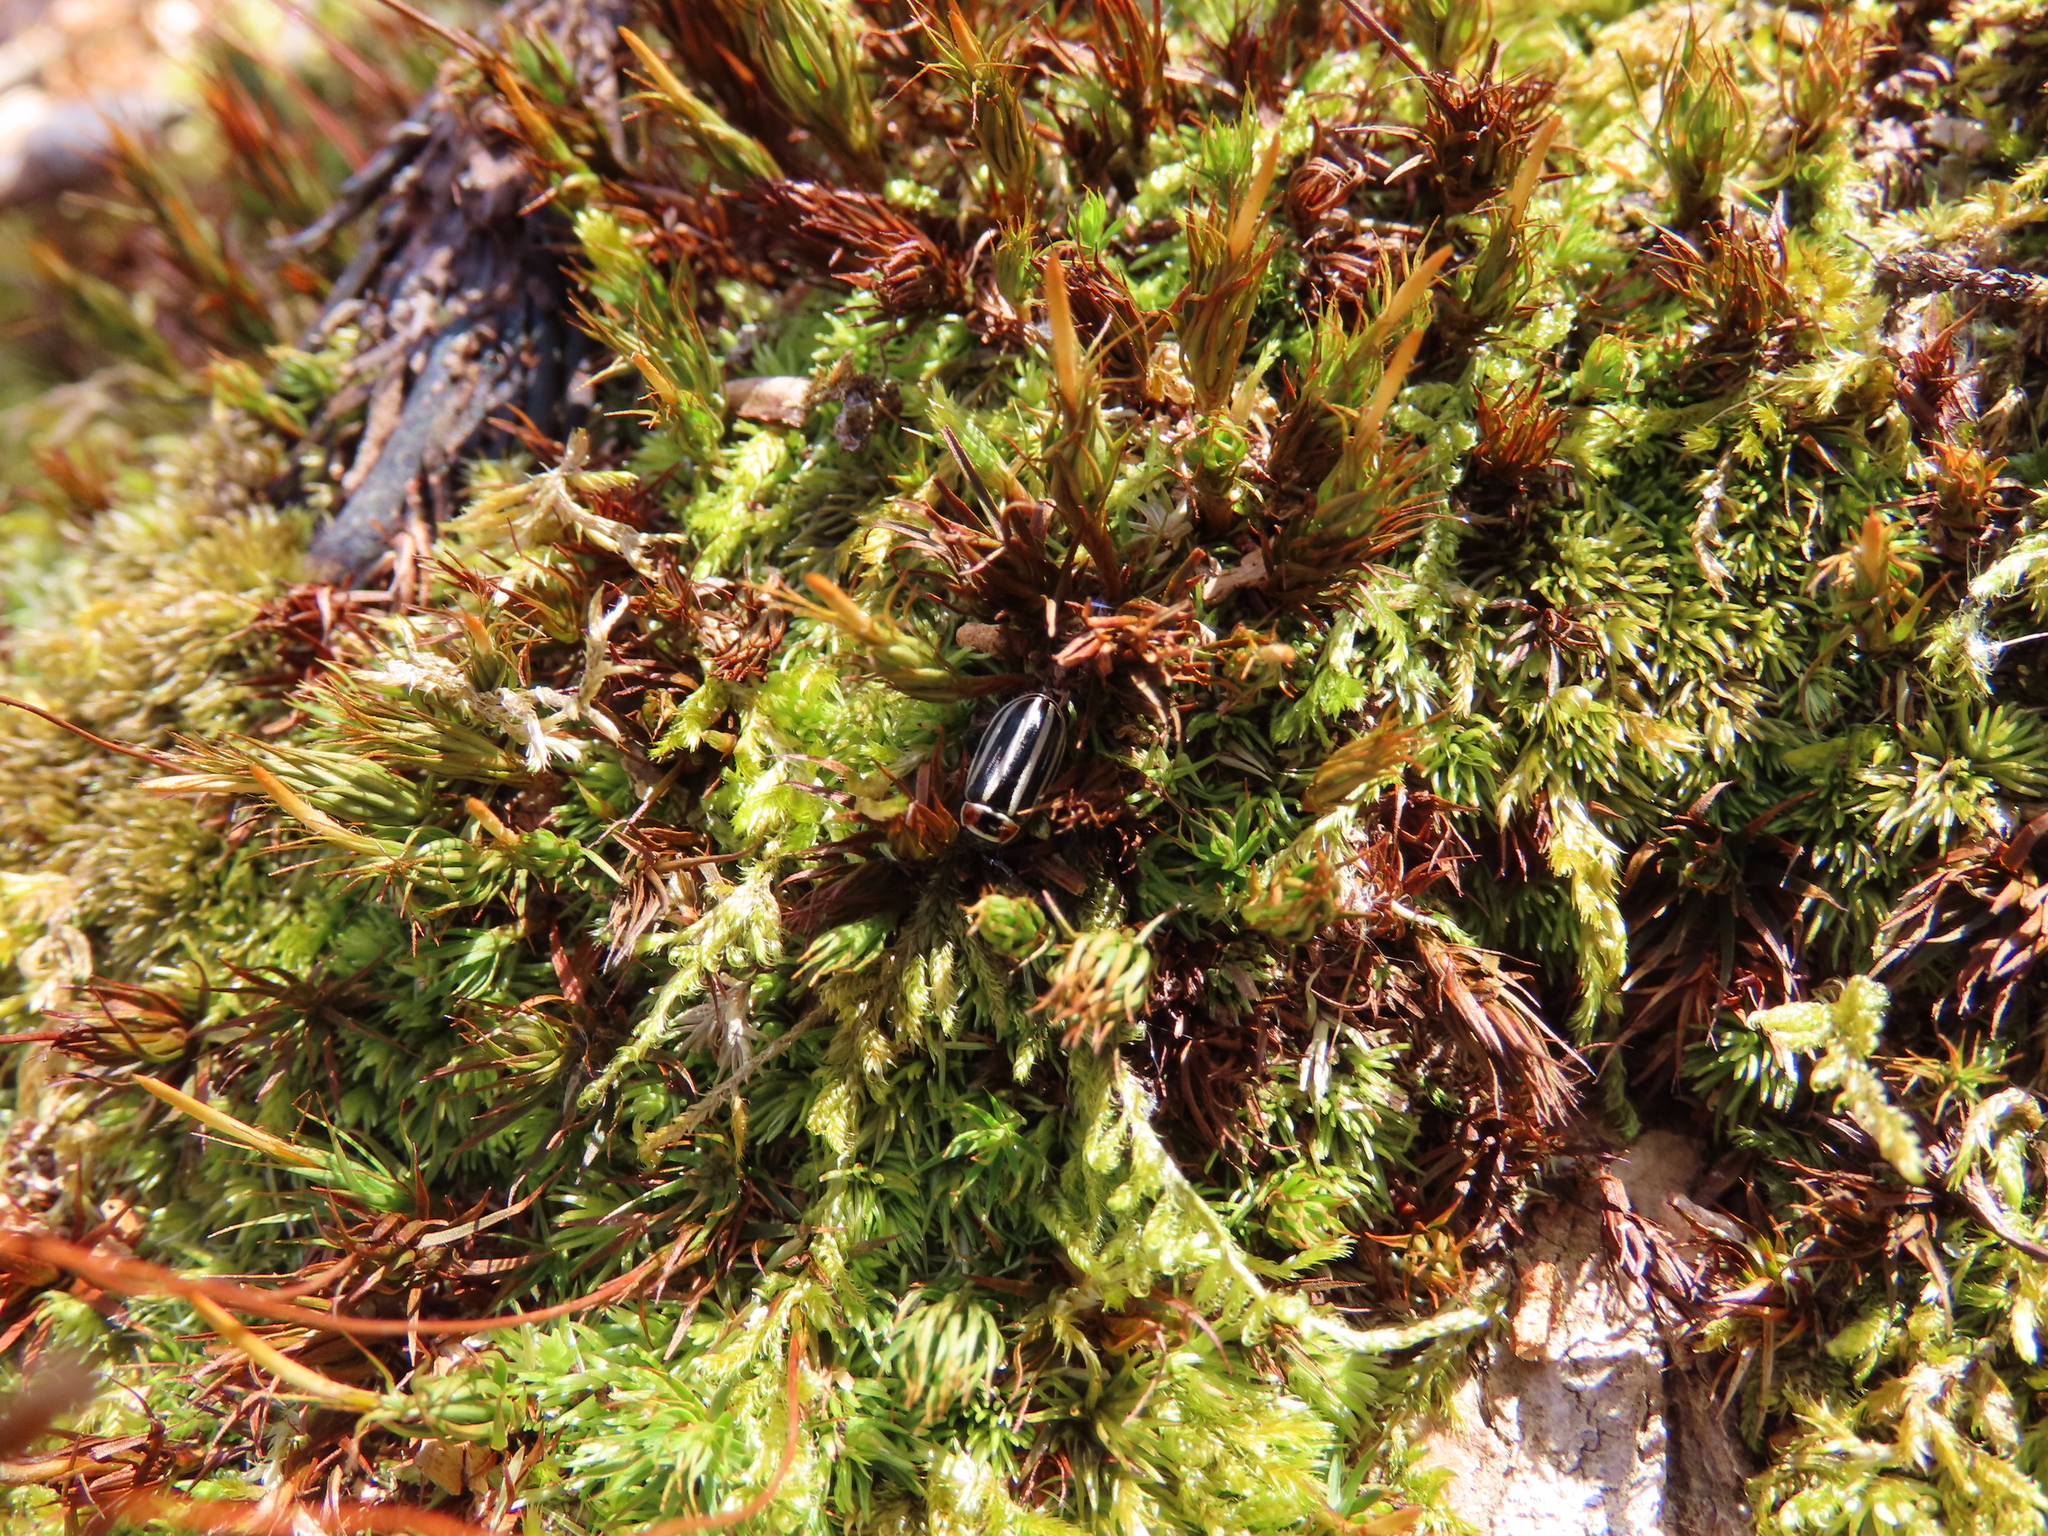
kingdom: Animalia
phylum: Arthropoda
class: Insecta
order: Coleoptera
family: Chrysomelidae
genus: Disonycha
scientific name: Disonycha pensylvanica
